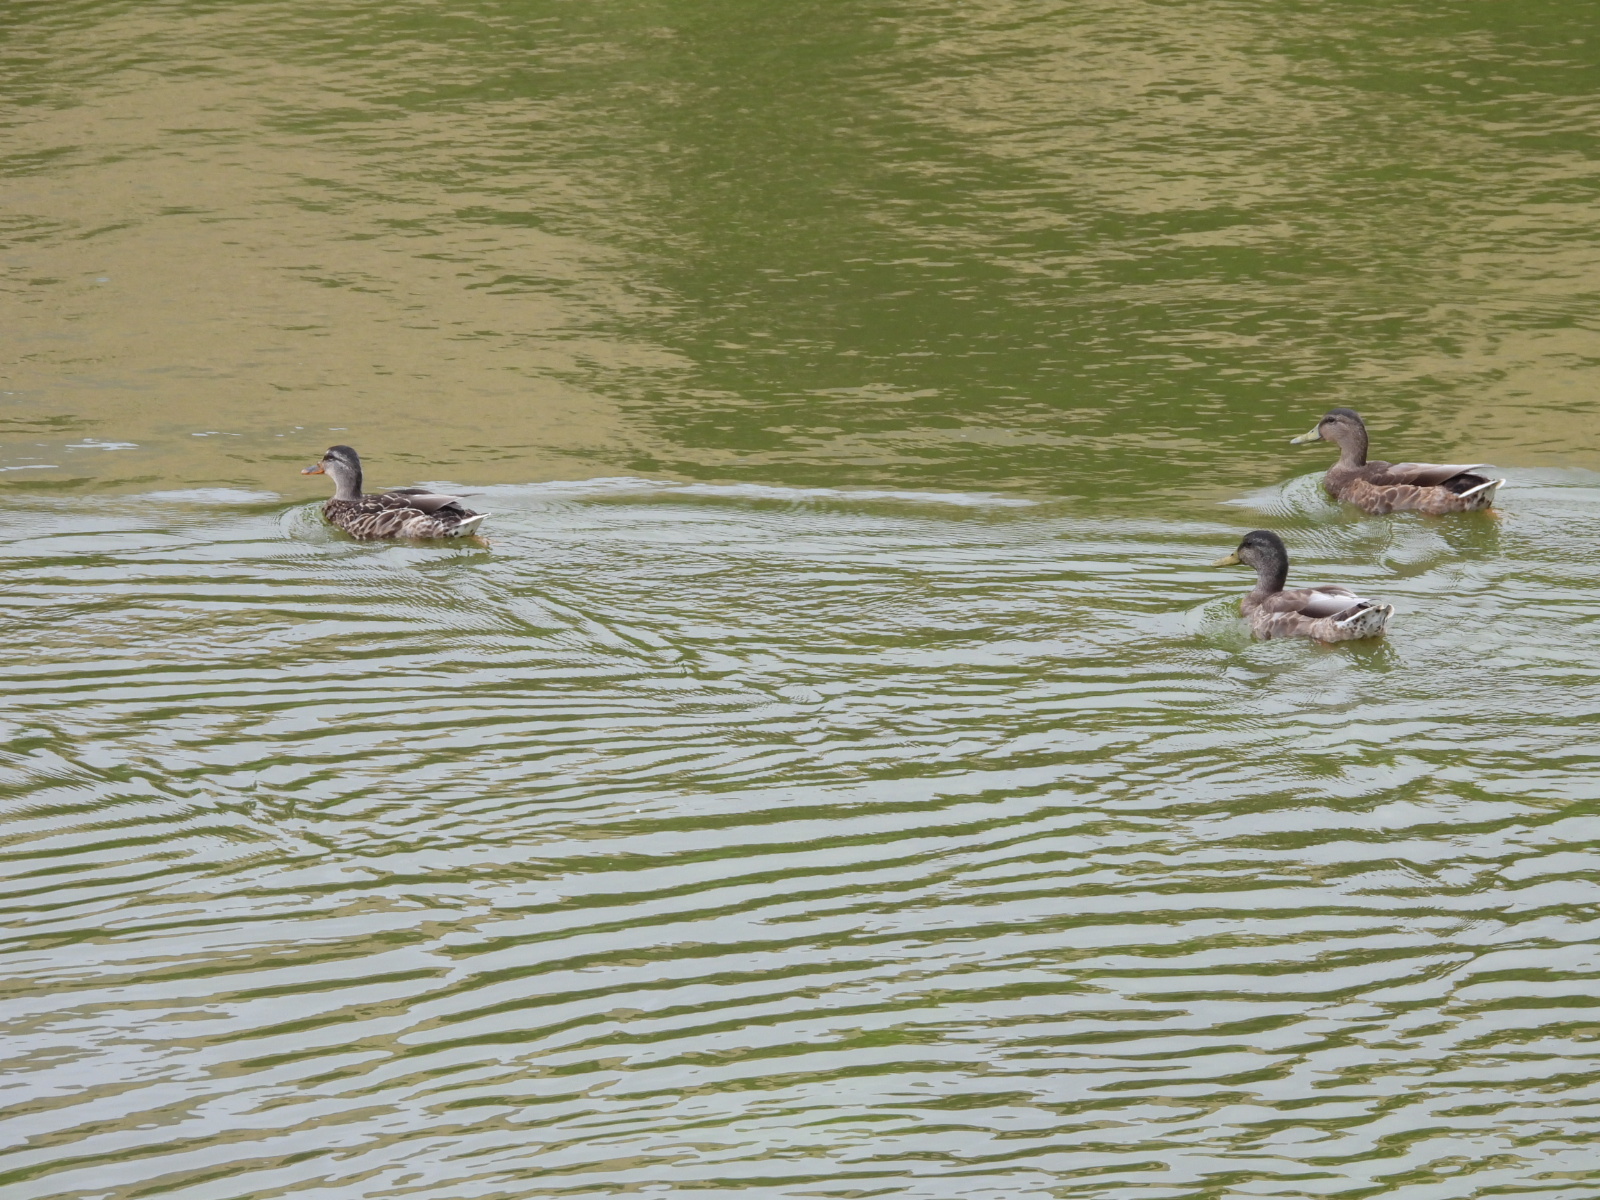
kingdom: Animalia
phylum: Chordata
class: Aves
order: Anseriformes
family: Anatidae
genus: Anas
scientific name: Anas platyrhynchos
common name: Mallard
